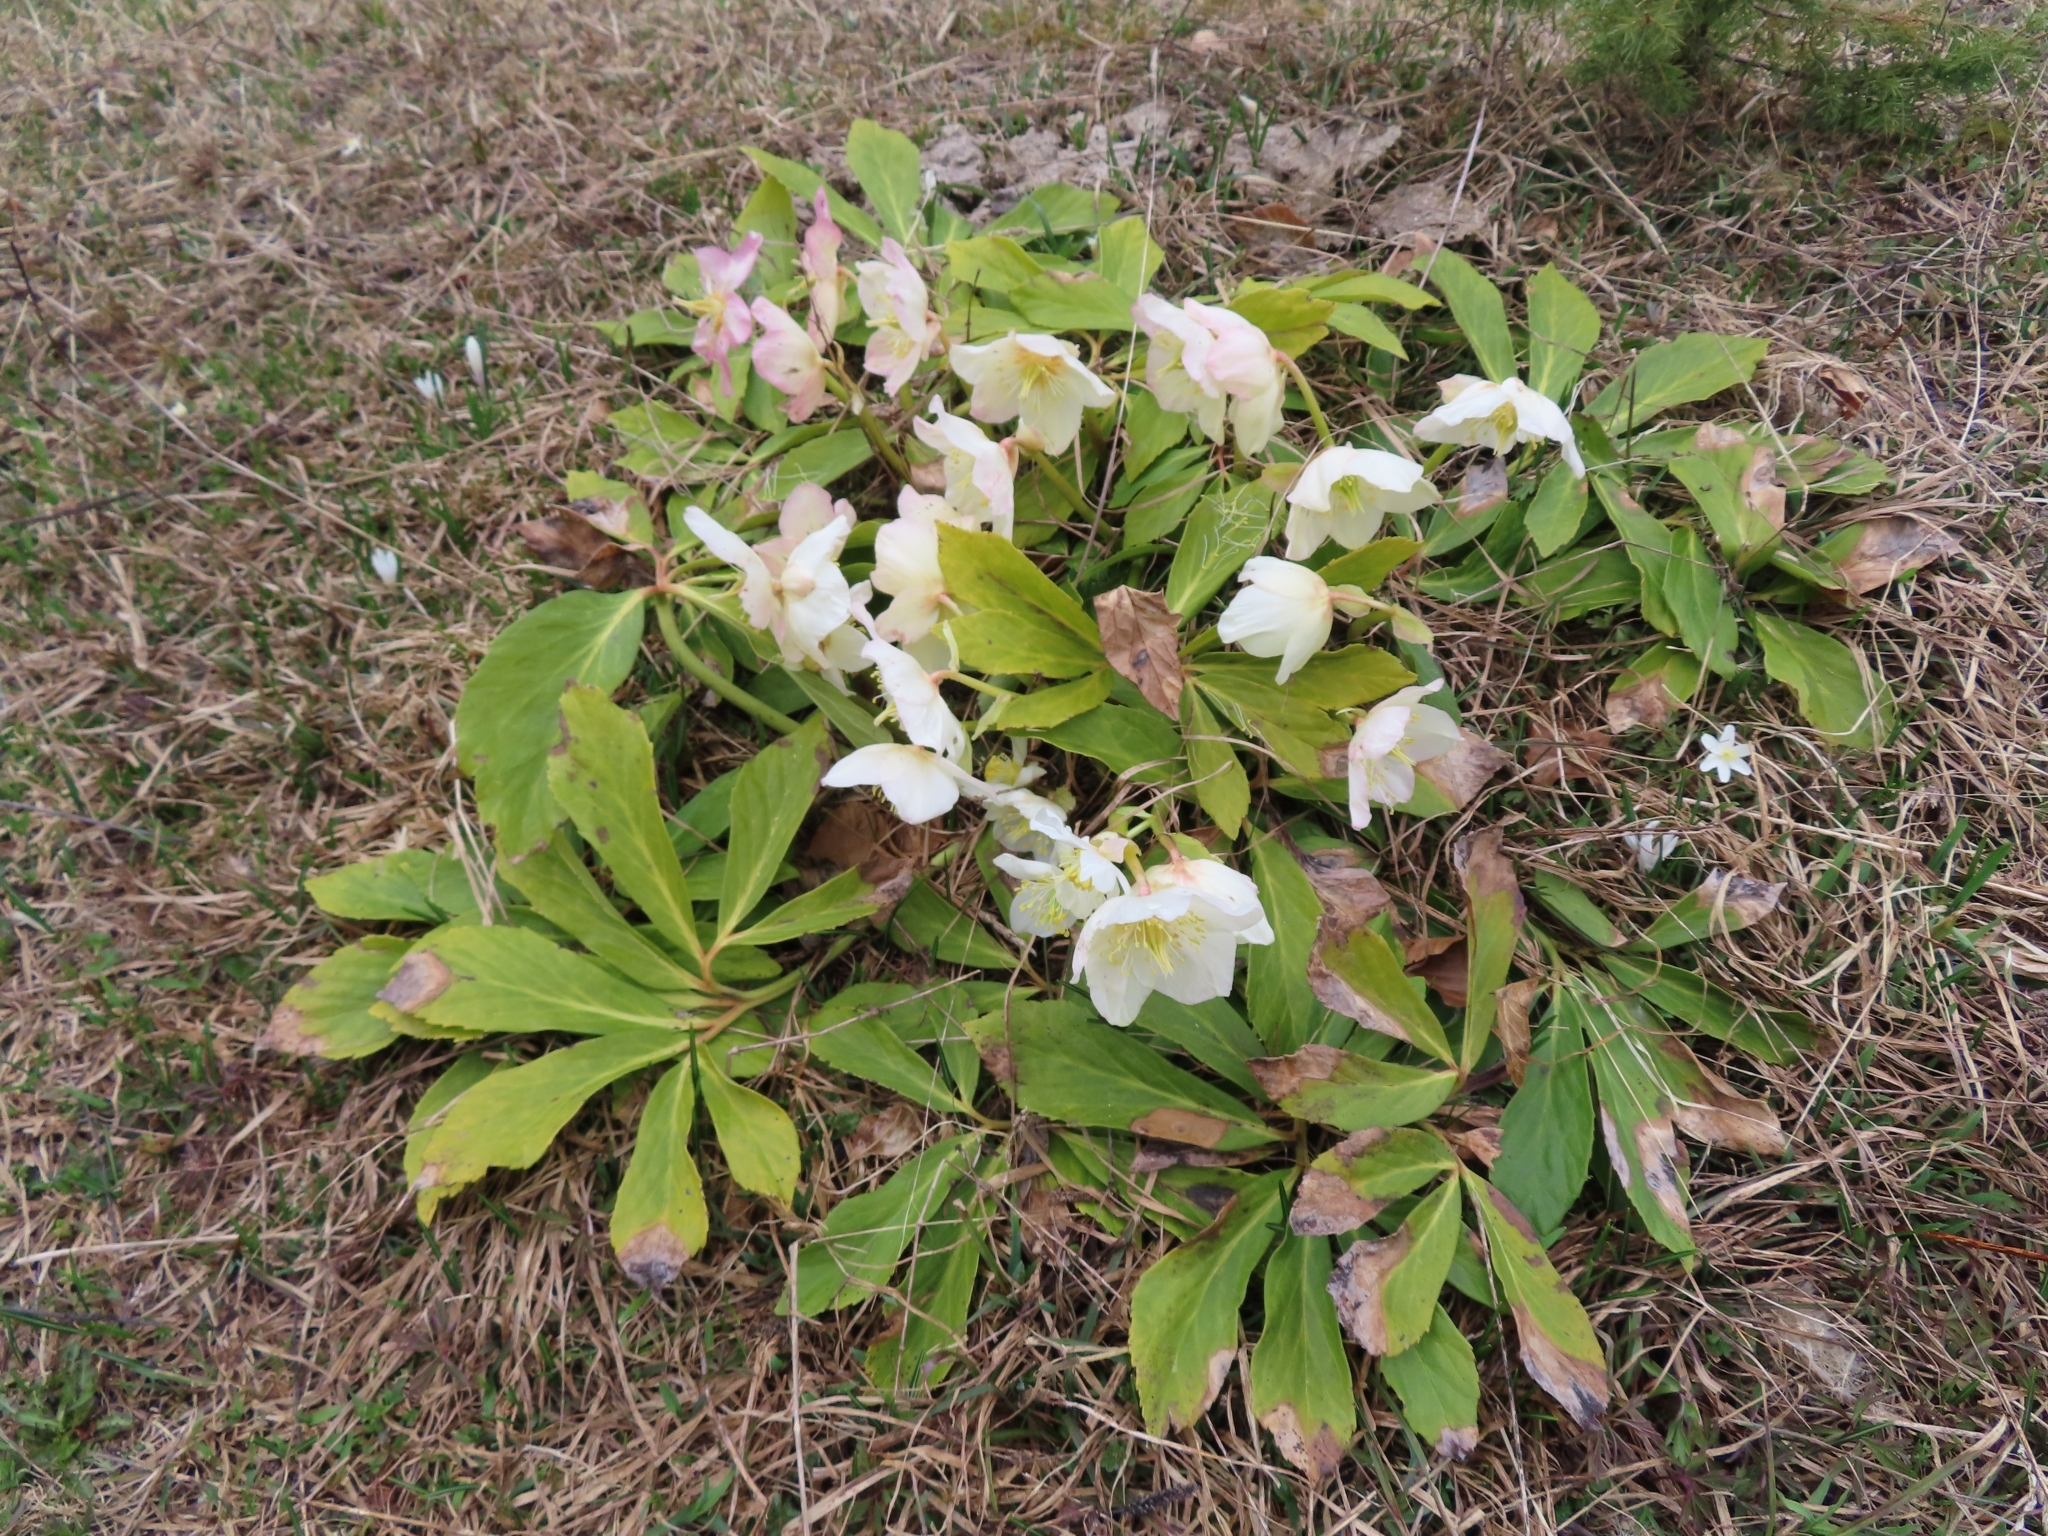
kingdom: Plantae
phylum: Tracheophyta
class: Magnoliopsida
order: Ranunculales
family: Ranunculaceae
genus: Helleborus
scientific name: Helleborus niger
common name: Black hellebore
